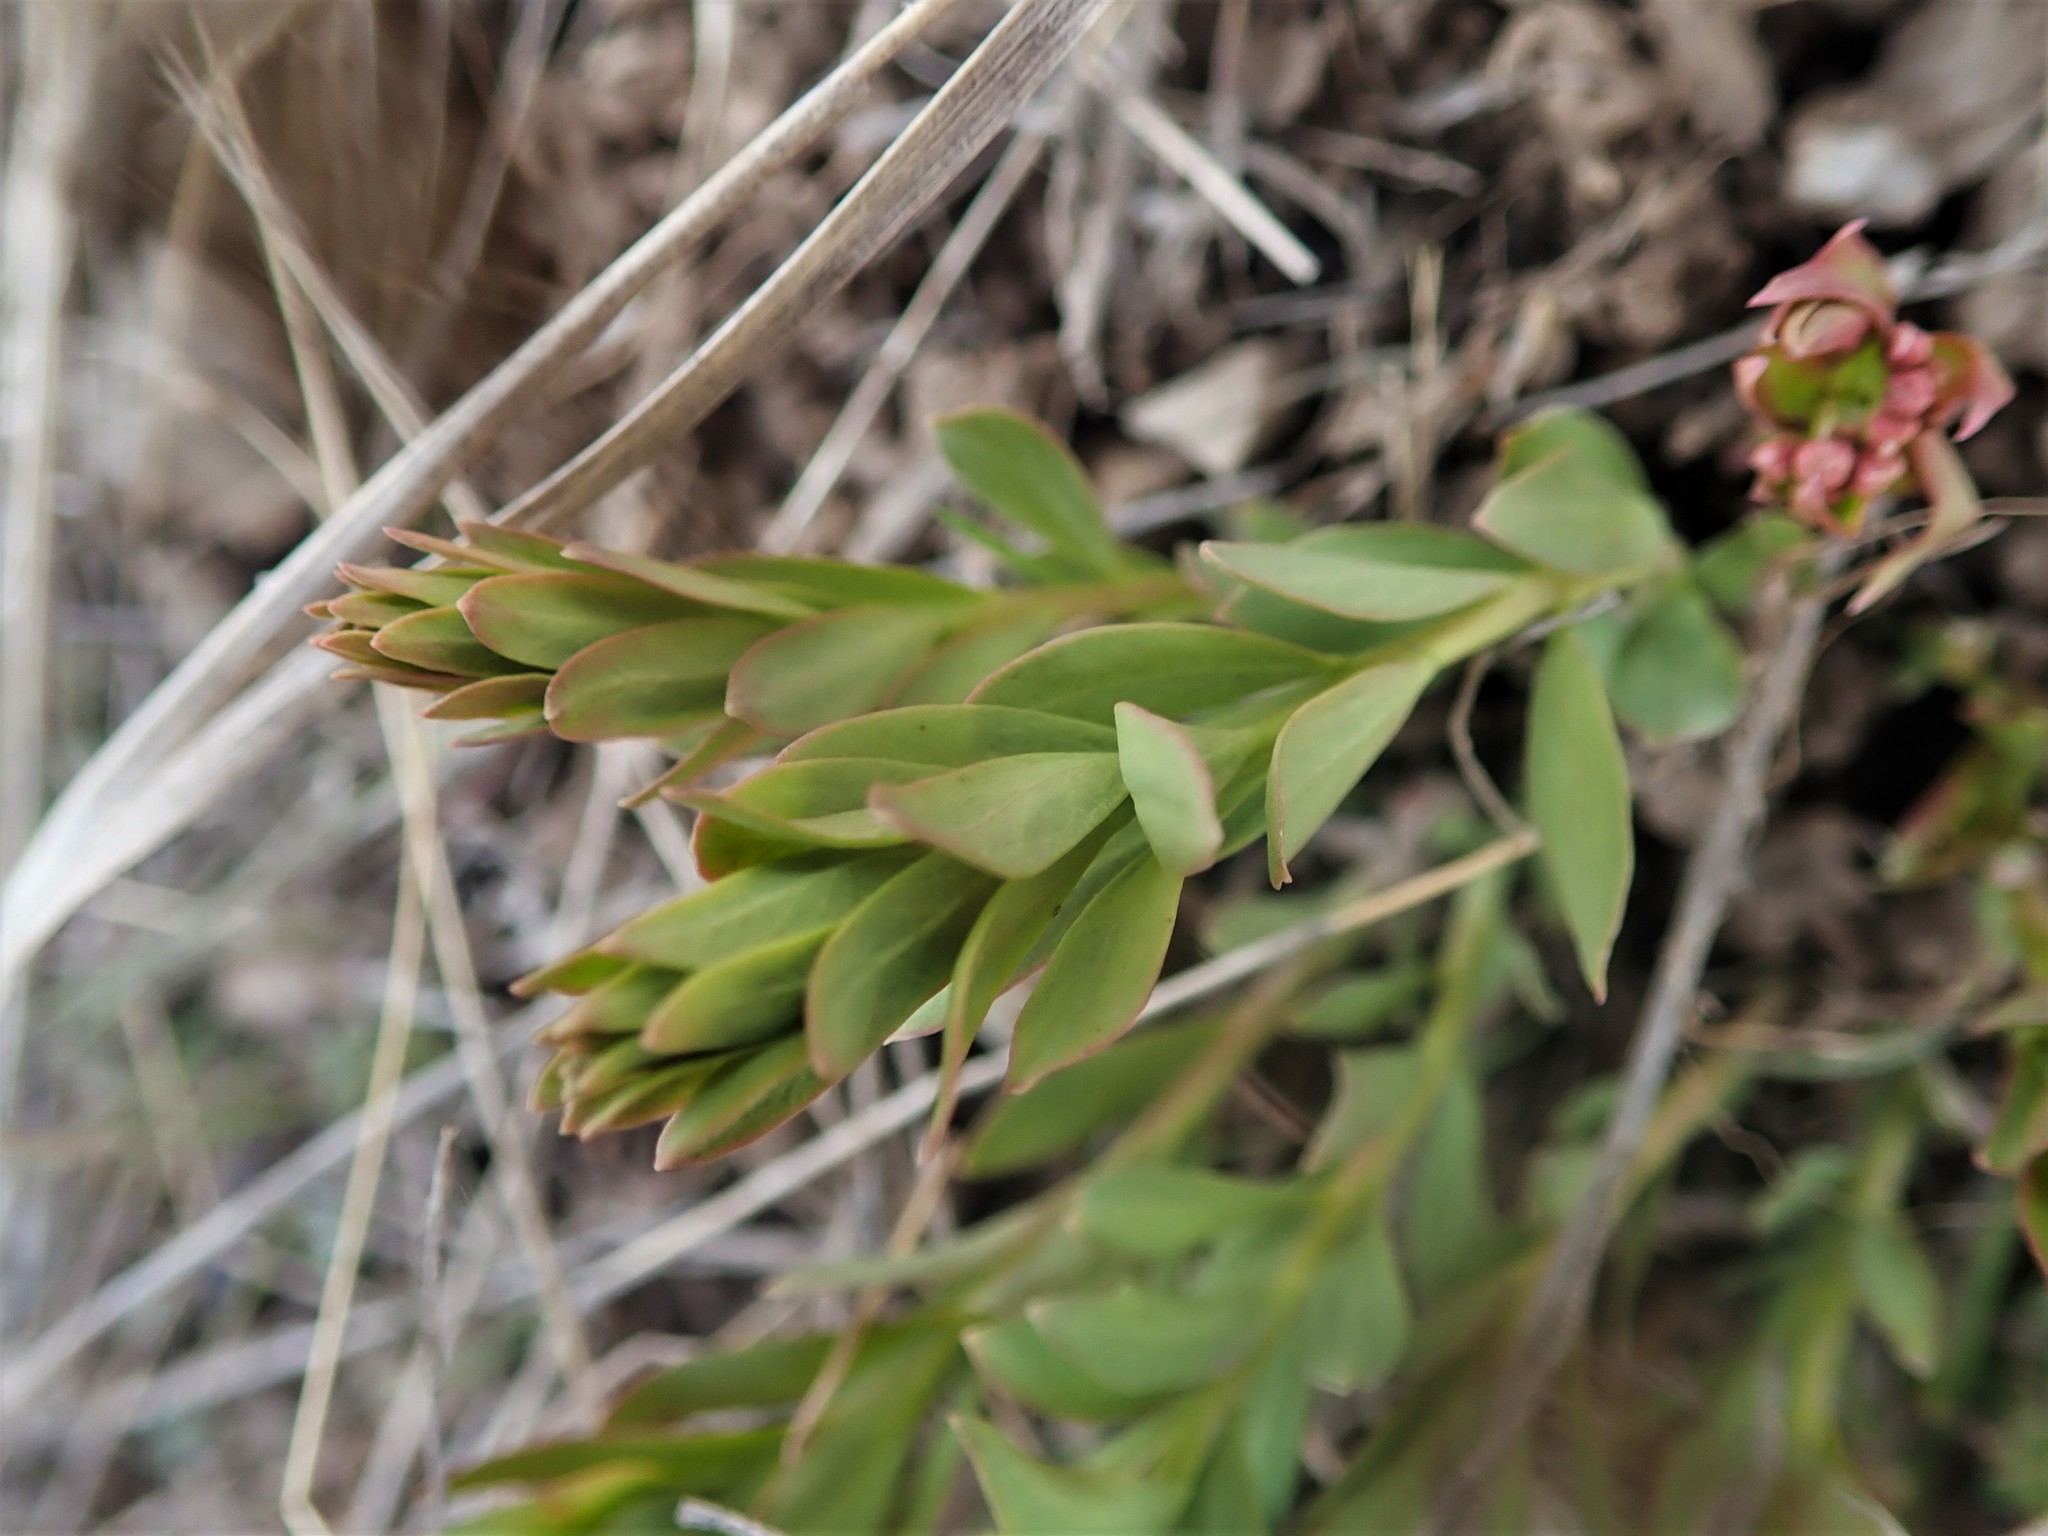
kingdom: Plantae
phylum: Tracheophyta
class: Magnoliopsida
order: Santalales
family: Comandraceae
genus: Comandra
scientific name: Comandra umbellata
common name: Bastard toadflax
